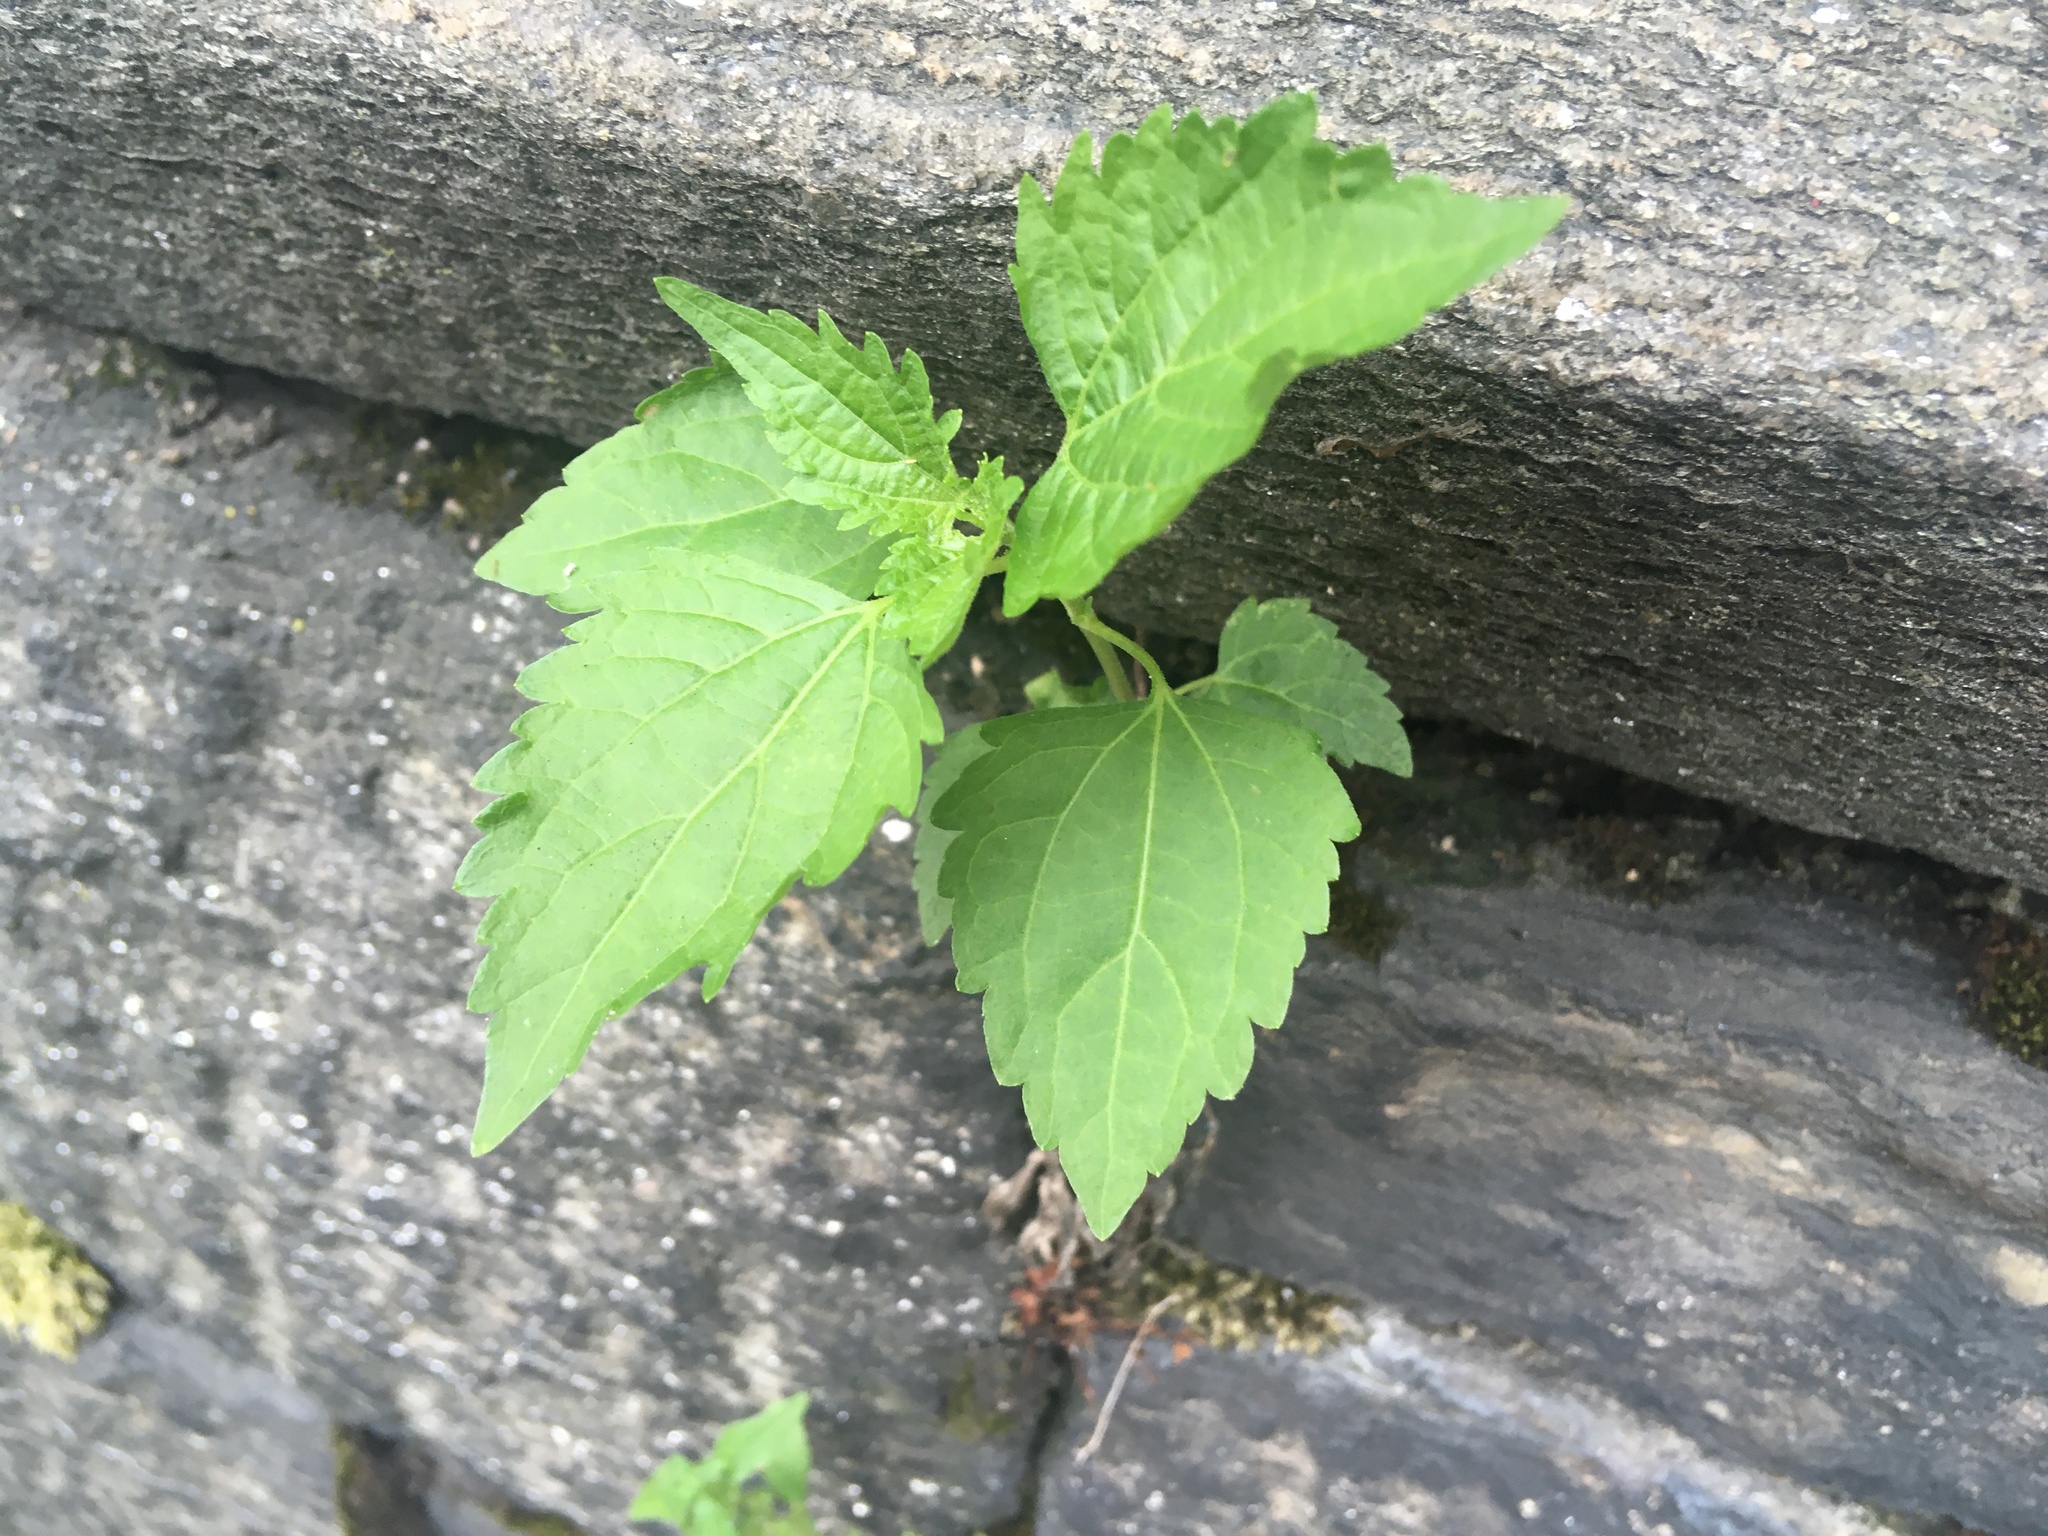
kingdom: Plantae
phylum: Tracheophyta
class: Magnoliopsida
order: Asterales
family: Asteraceae
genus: Ageratina
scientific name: Ageratina altissima
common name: White snakeroot
